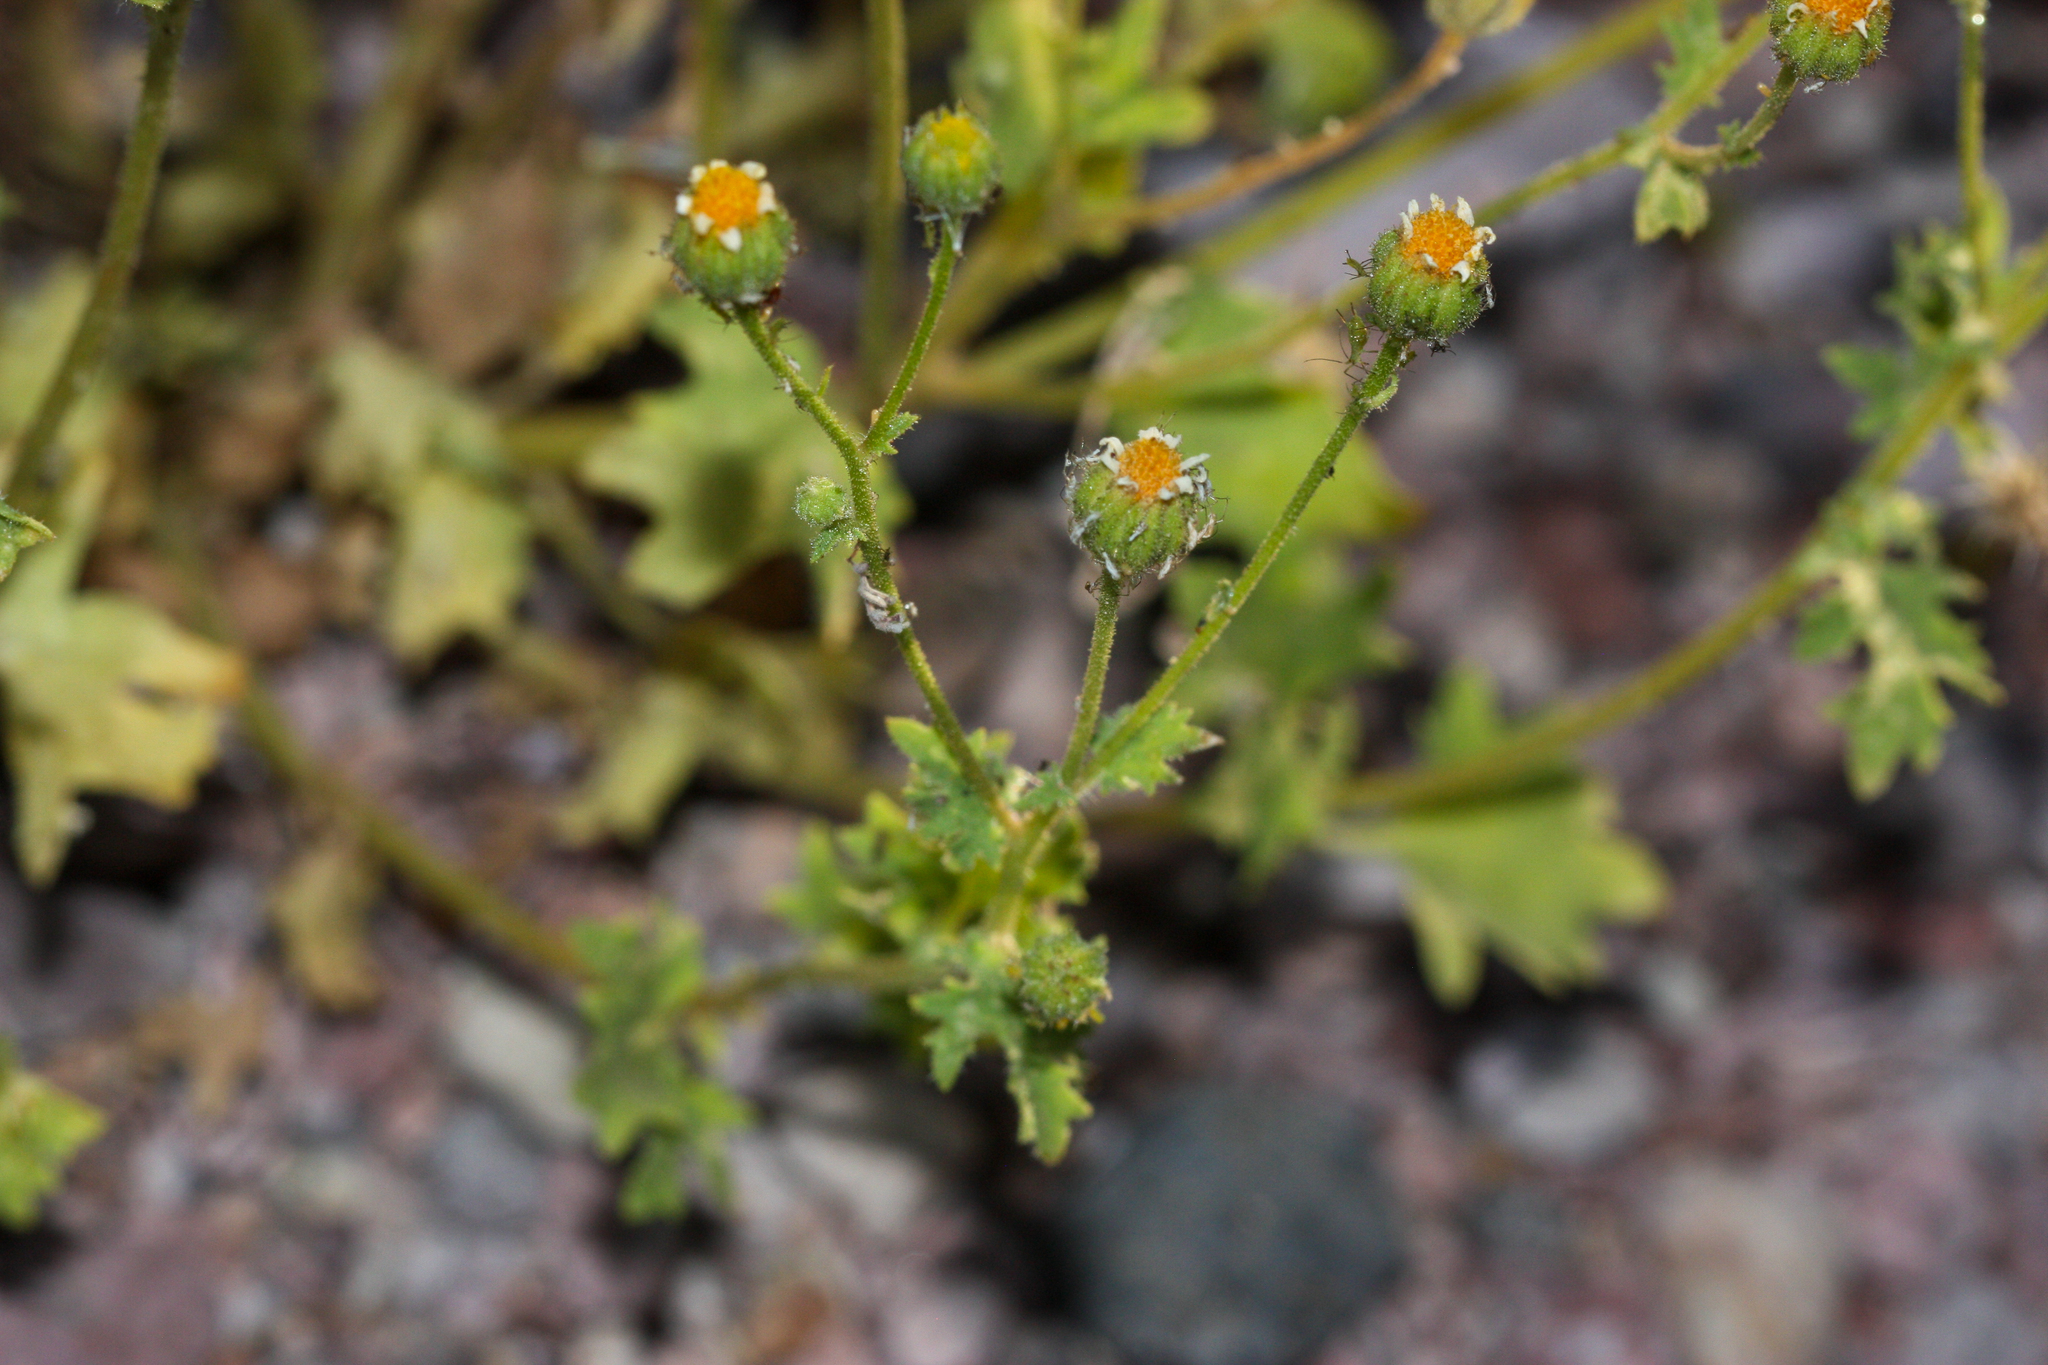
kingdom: Plantae
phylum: Tracheophyta
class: Magnoliopsida
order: Asterales
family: Asteraceae
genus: Laphamia
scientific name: Laphamia emoryi
